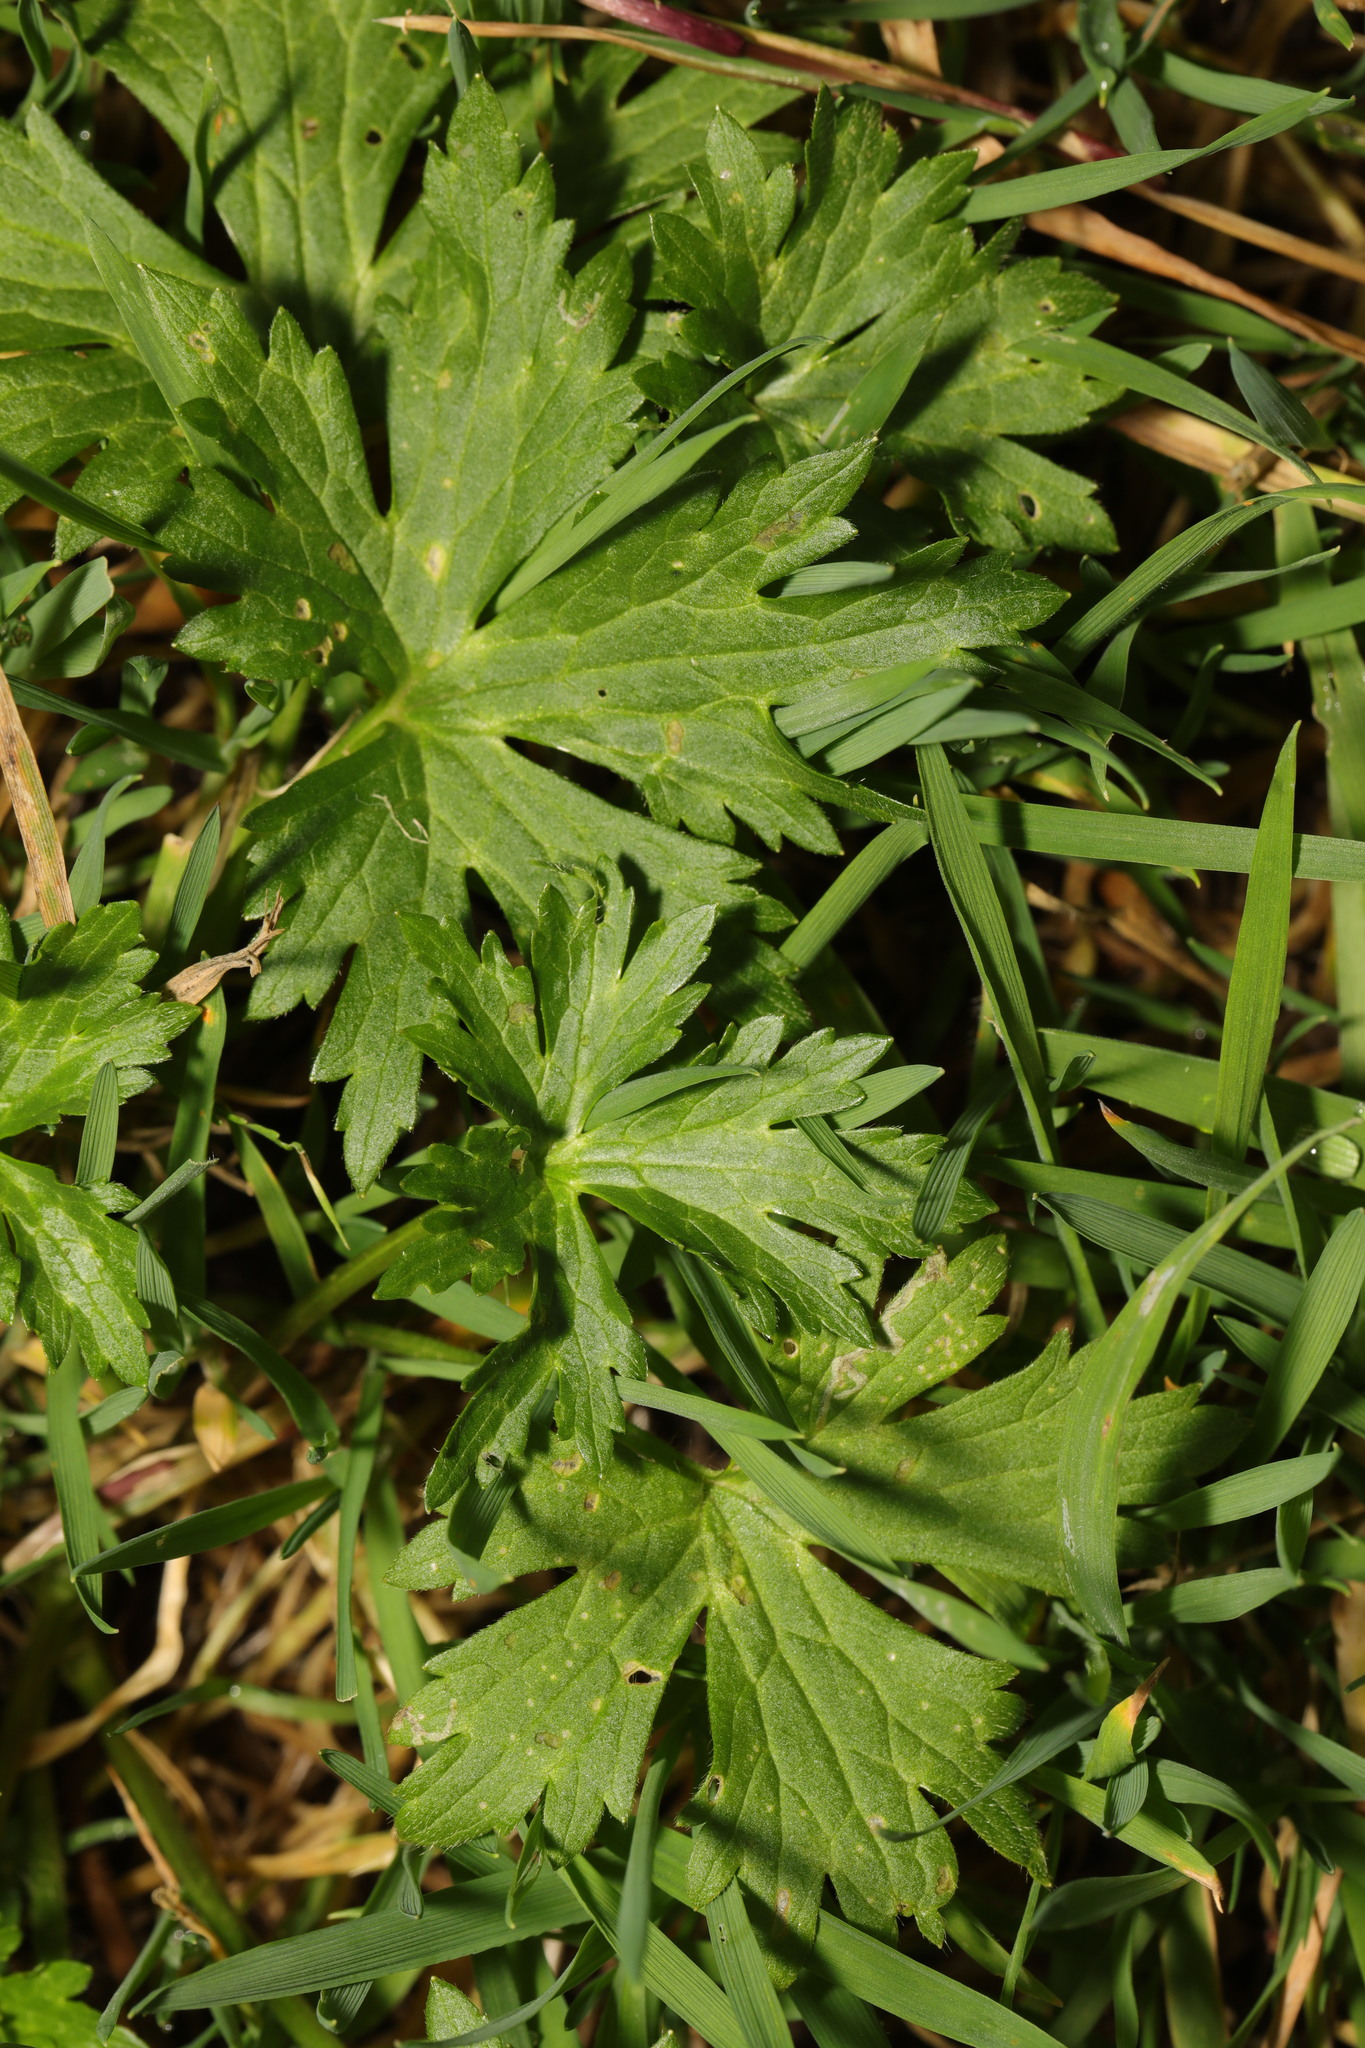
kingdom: Plantae
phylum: Tracheophyta
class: Magnoliopsida
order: Ranunculales
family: Ranunculaceae
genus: Ranunculus
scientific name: Ranunculus repens
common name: Creeping buttercup
